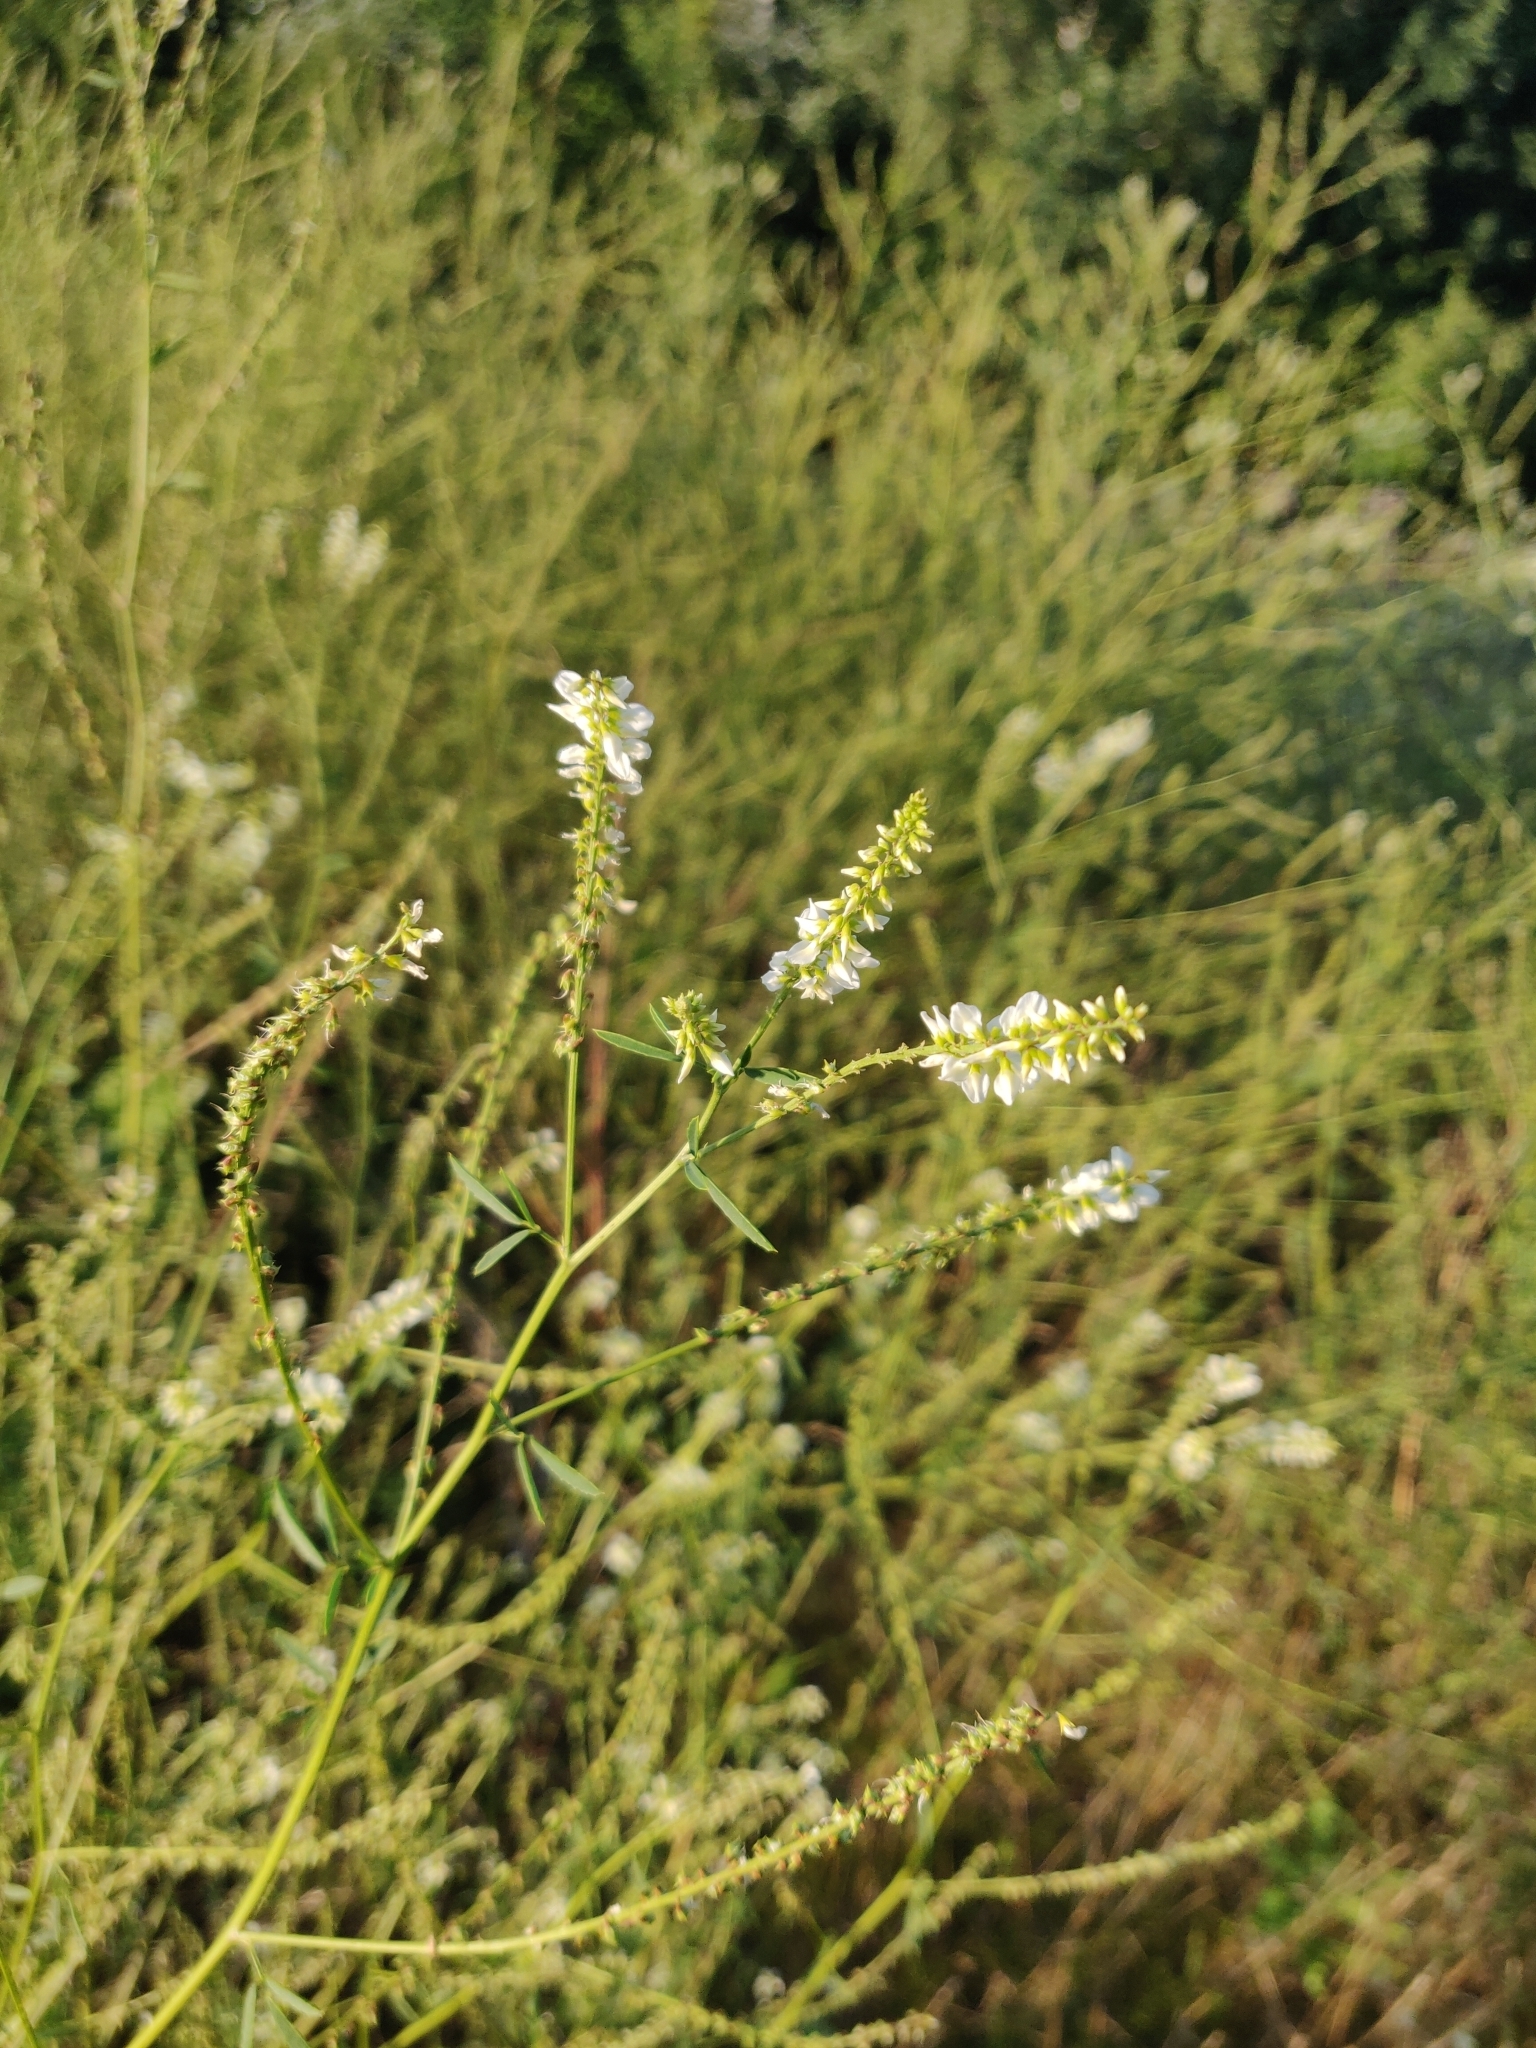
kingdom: Plantae
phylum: Tracheophyta
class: Magnoliopsida
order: Fabales
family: Fabaceae
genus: Melilotus
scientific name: Melilotus albus
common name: White melilot
